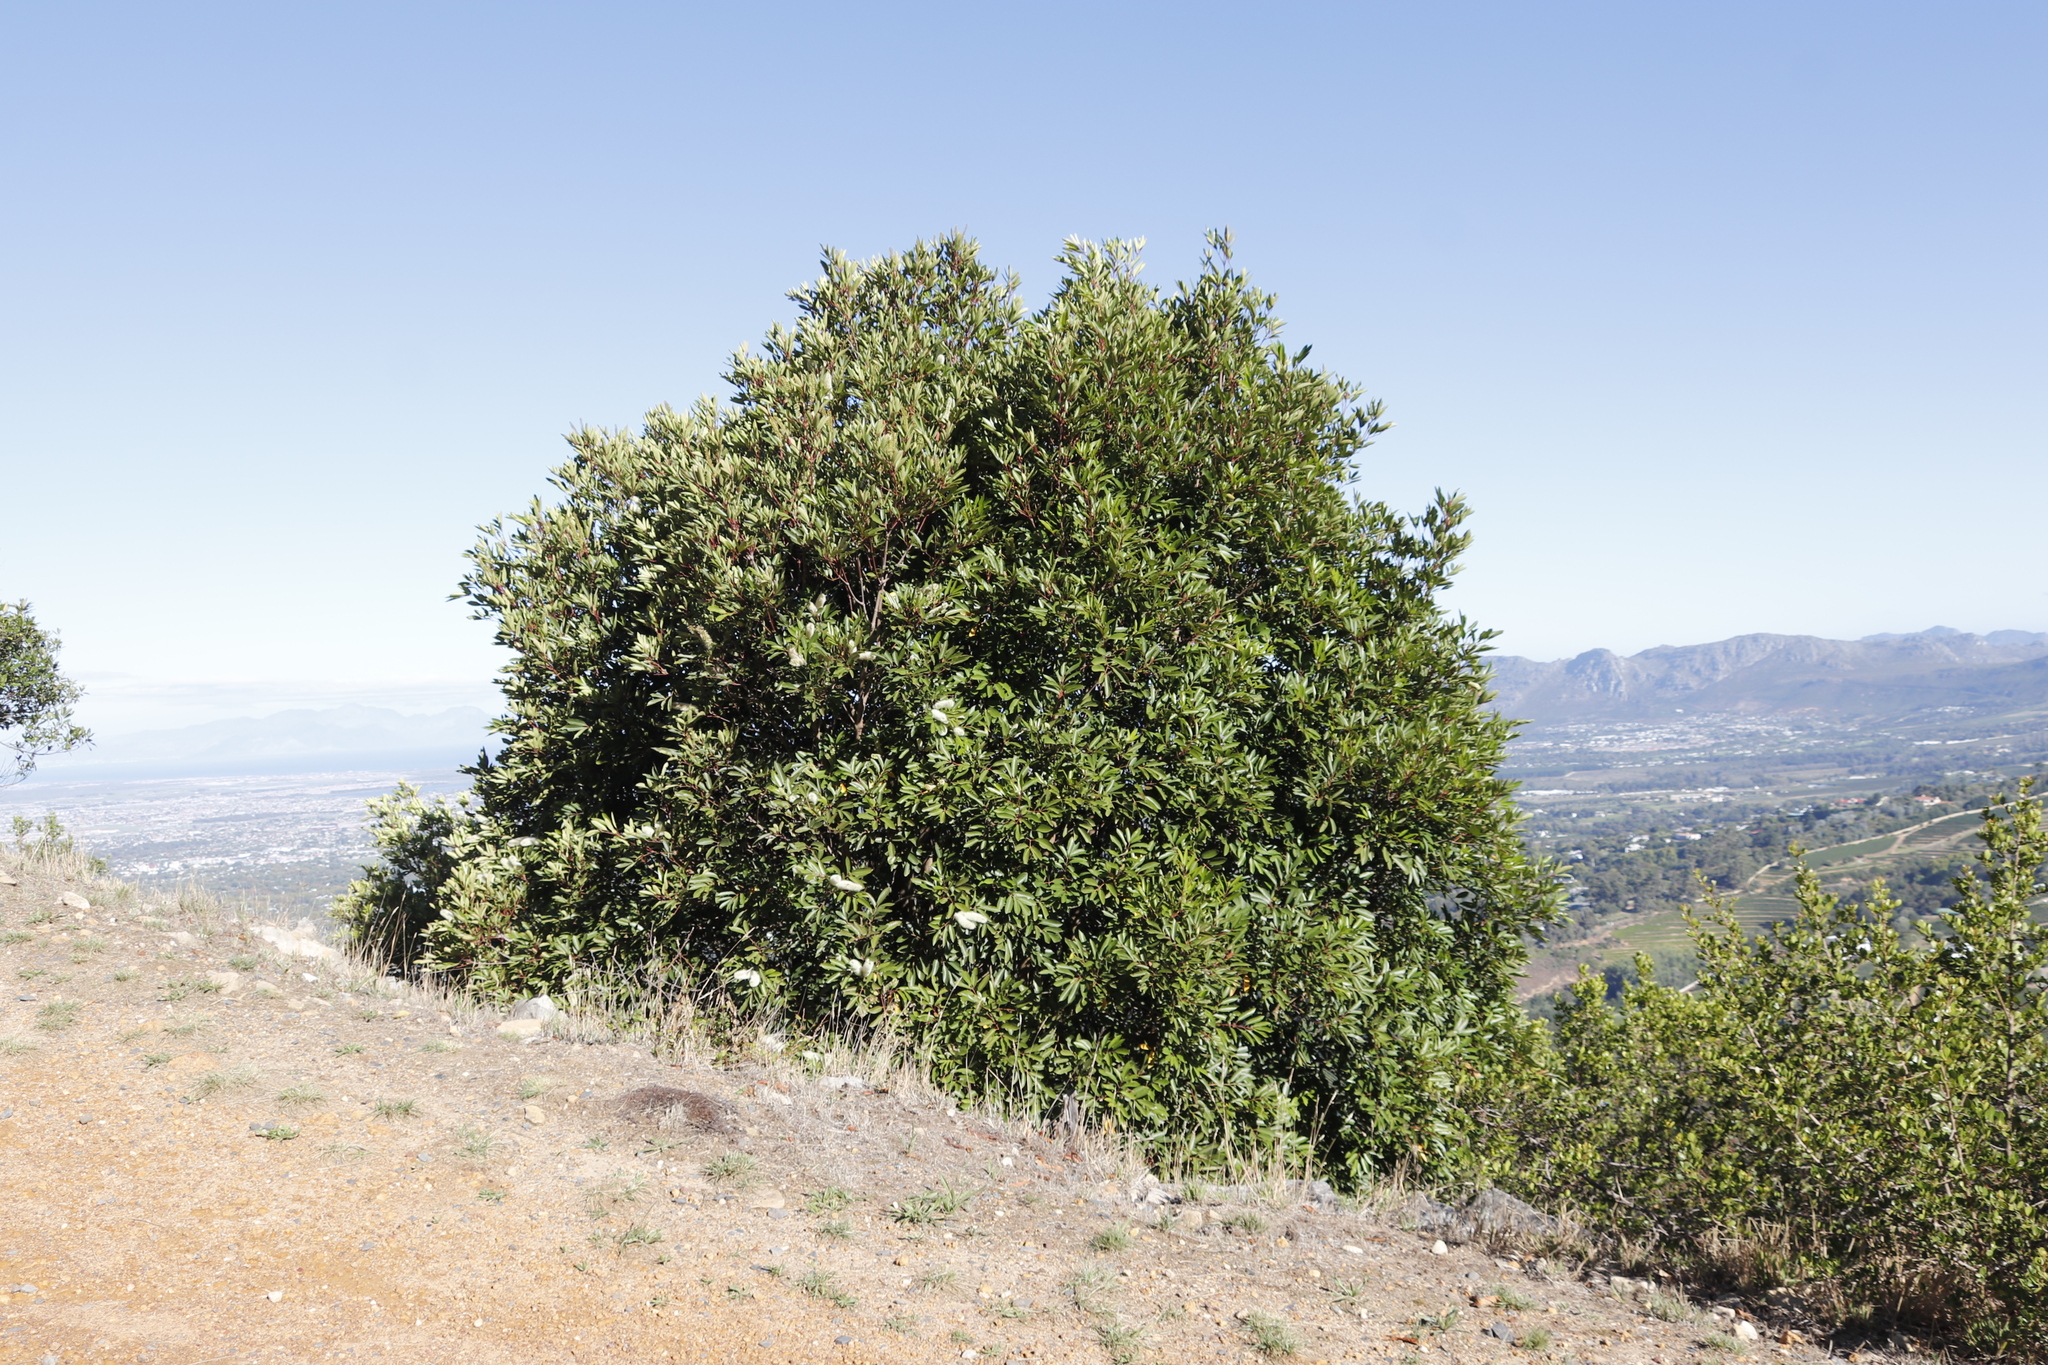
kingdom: Plantae
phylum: Tracheophyta
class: Magnoliopsida
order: Oxalidales
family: Cunoniaceae
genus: Cunonia
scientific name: Cunonia capensis
